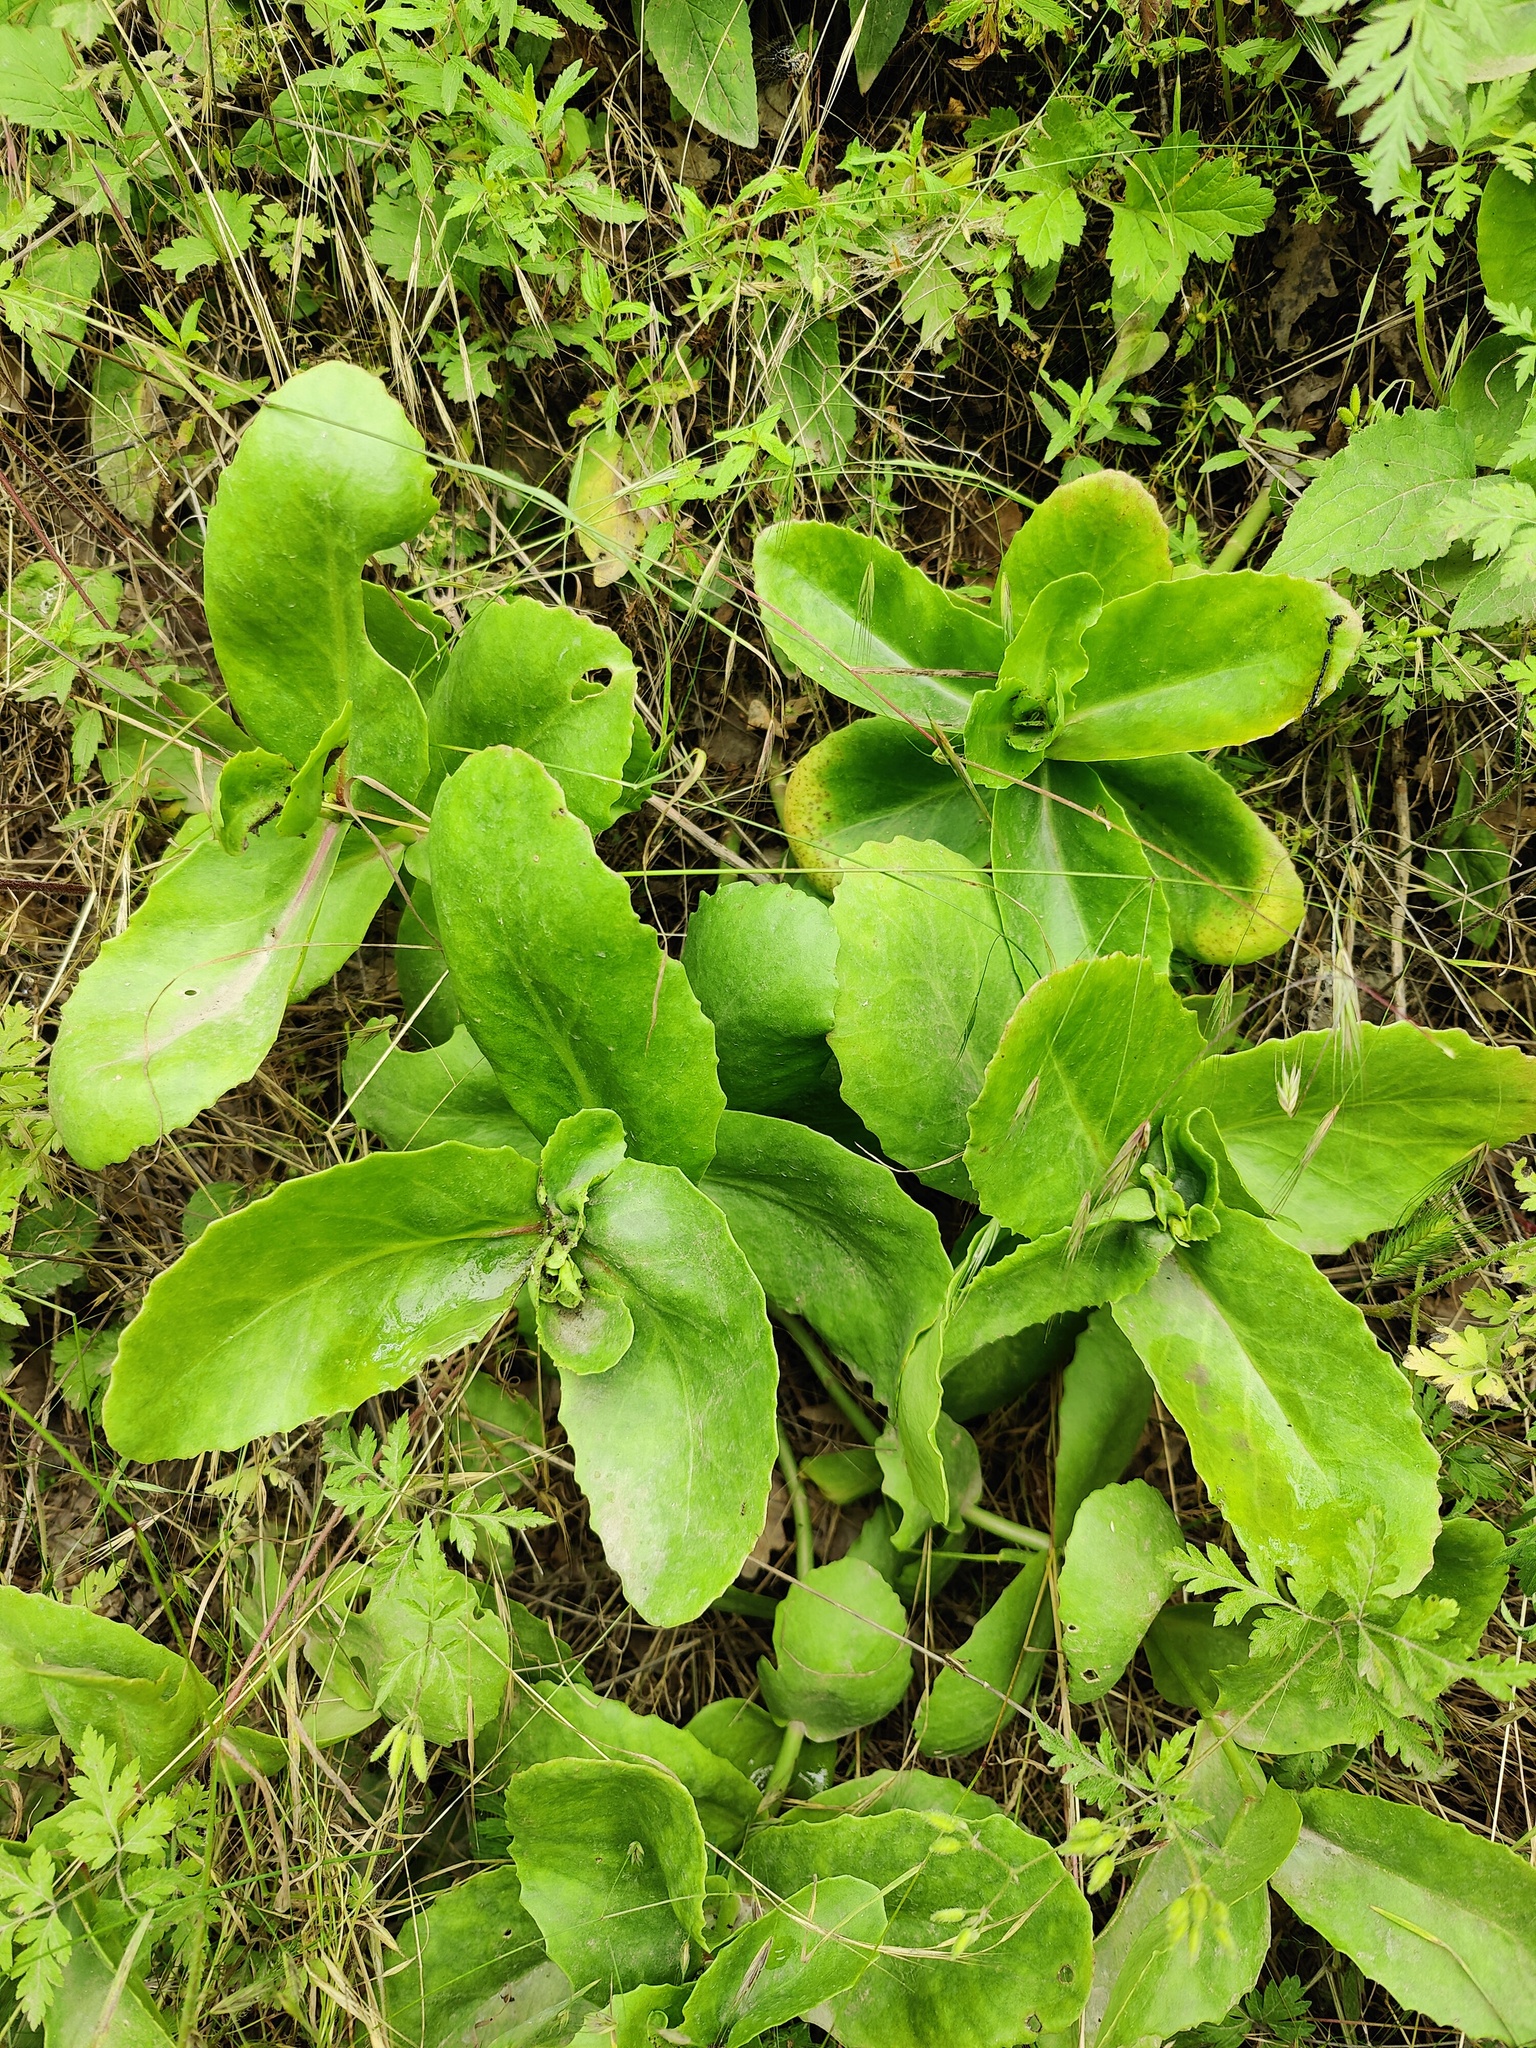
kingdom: Plantae
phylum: Tracheophyta
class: Magnoliopsida
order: Saxifragales
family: Crassulaceae
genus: Hylotelephium
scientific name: Hylotelephium maximum
